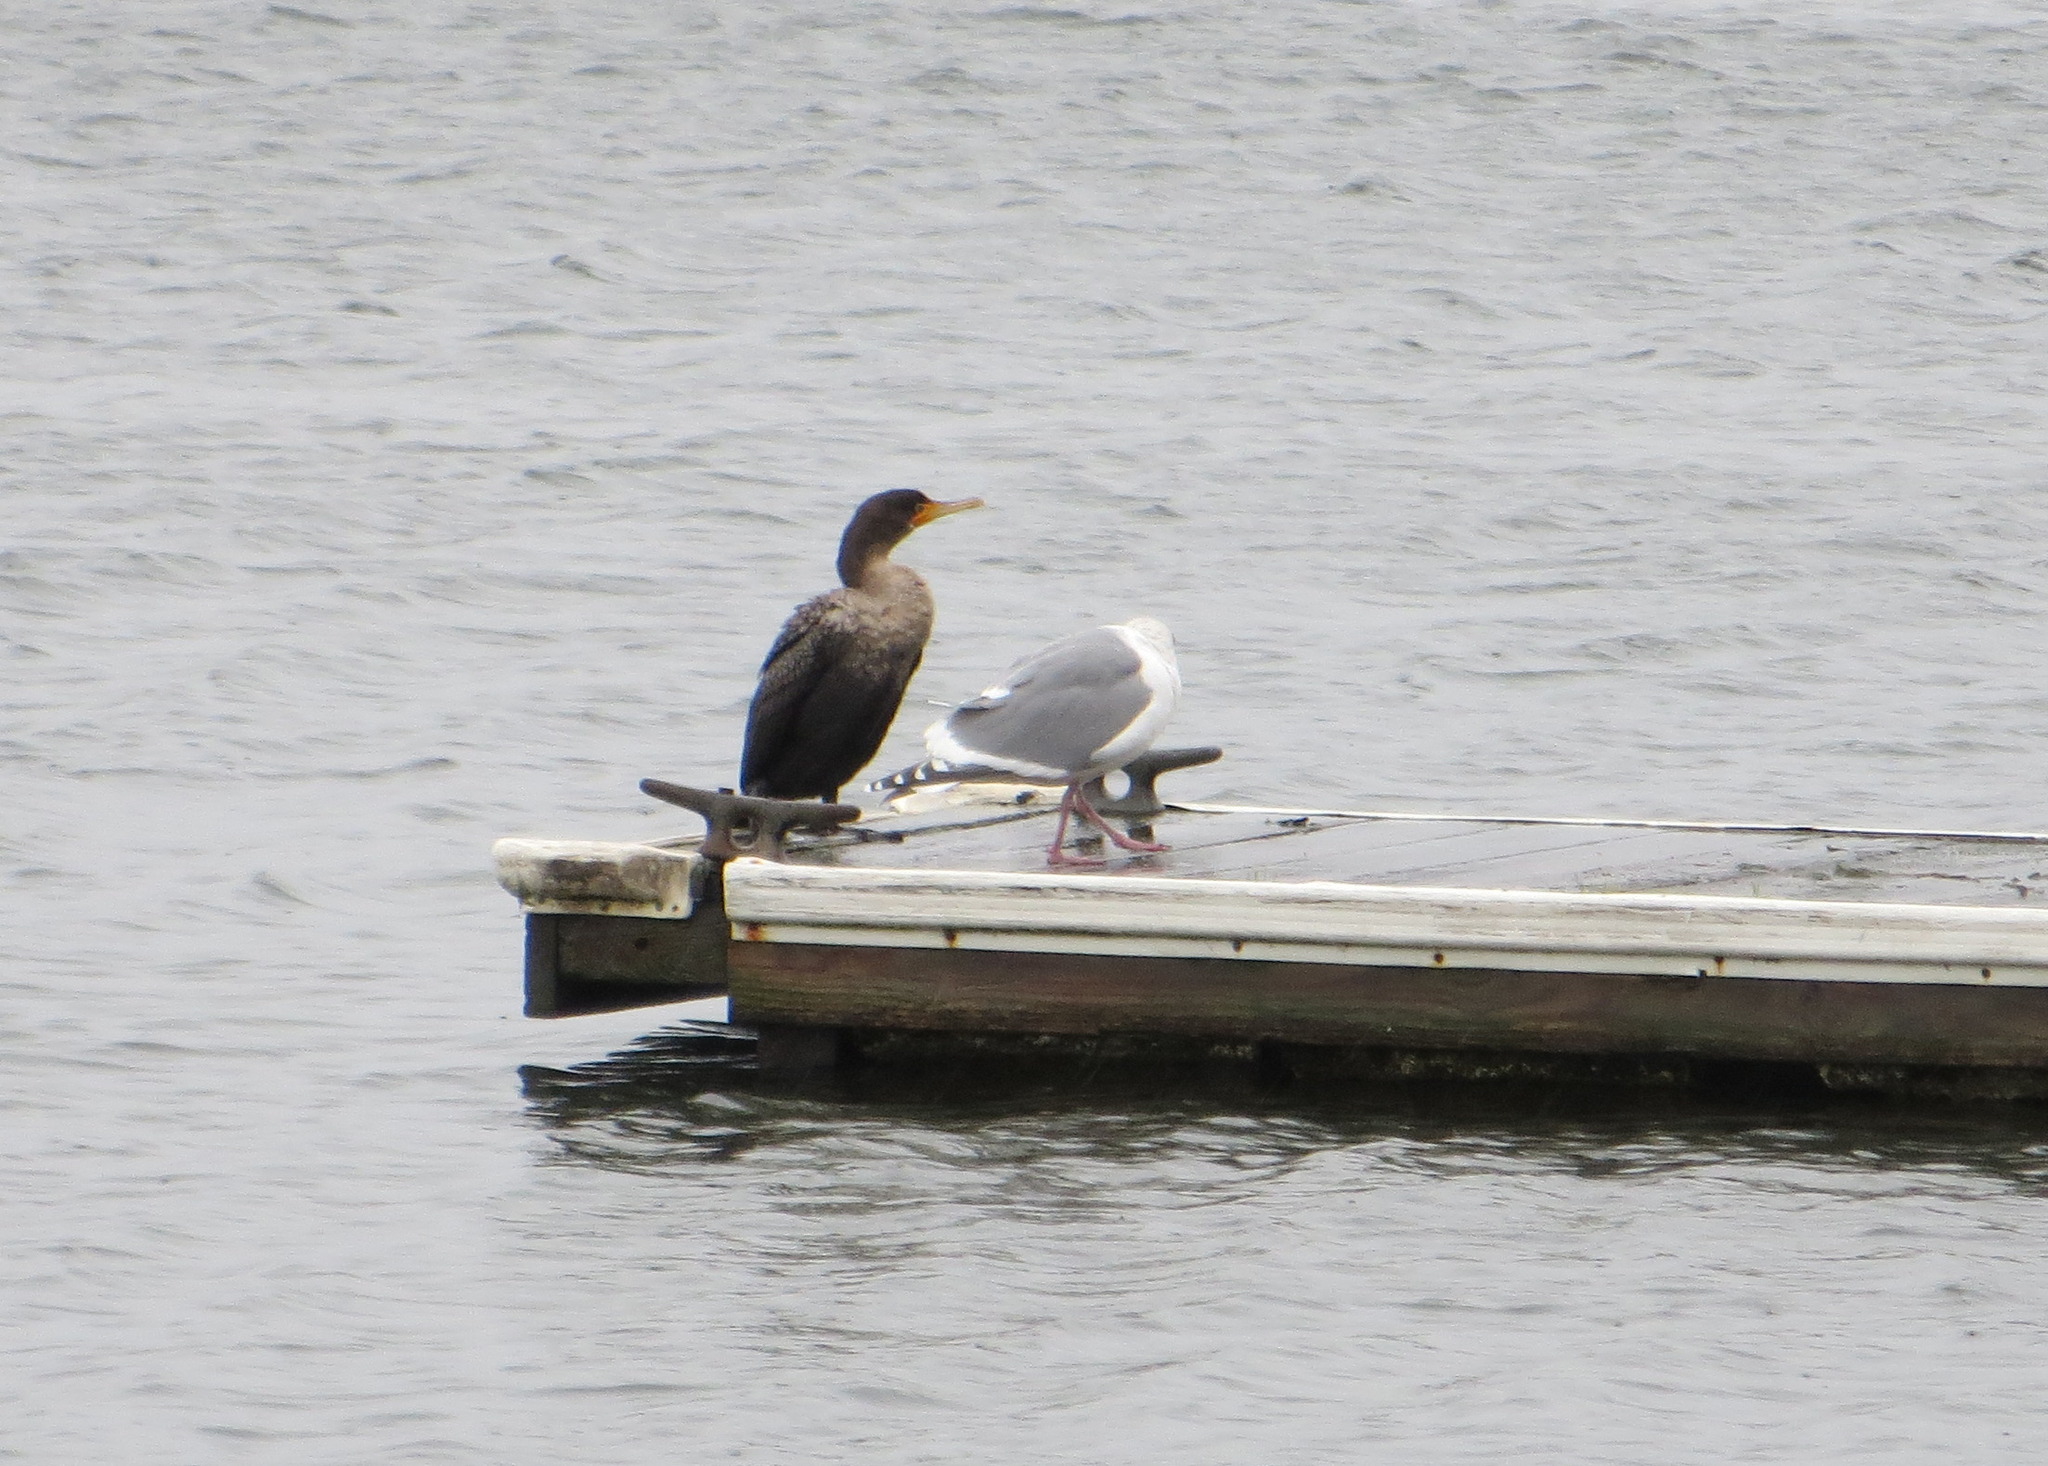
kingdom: Animalia
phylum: Chordata
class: Aves
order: Suliformes
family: Phalacrocoracidae
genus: Phalacrocorax
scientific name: Phalacrocorax auritus
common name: Double-crested cormorant
